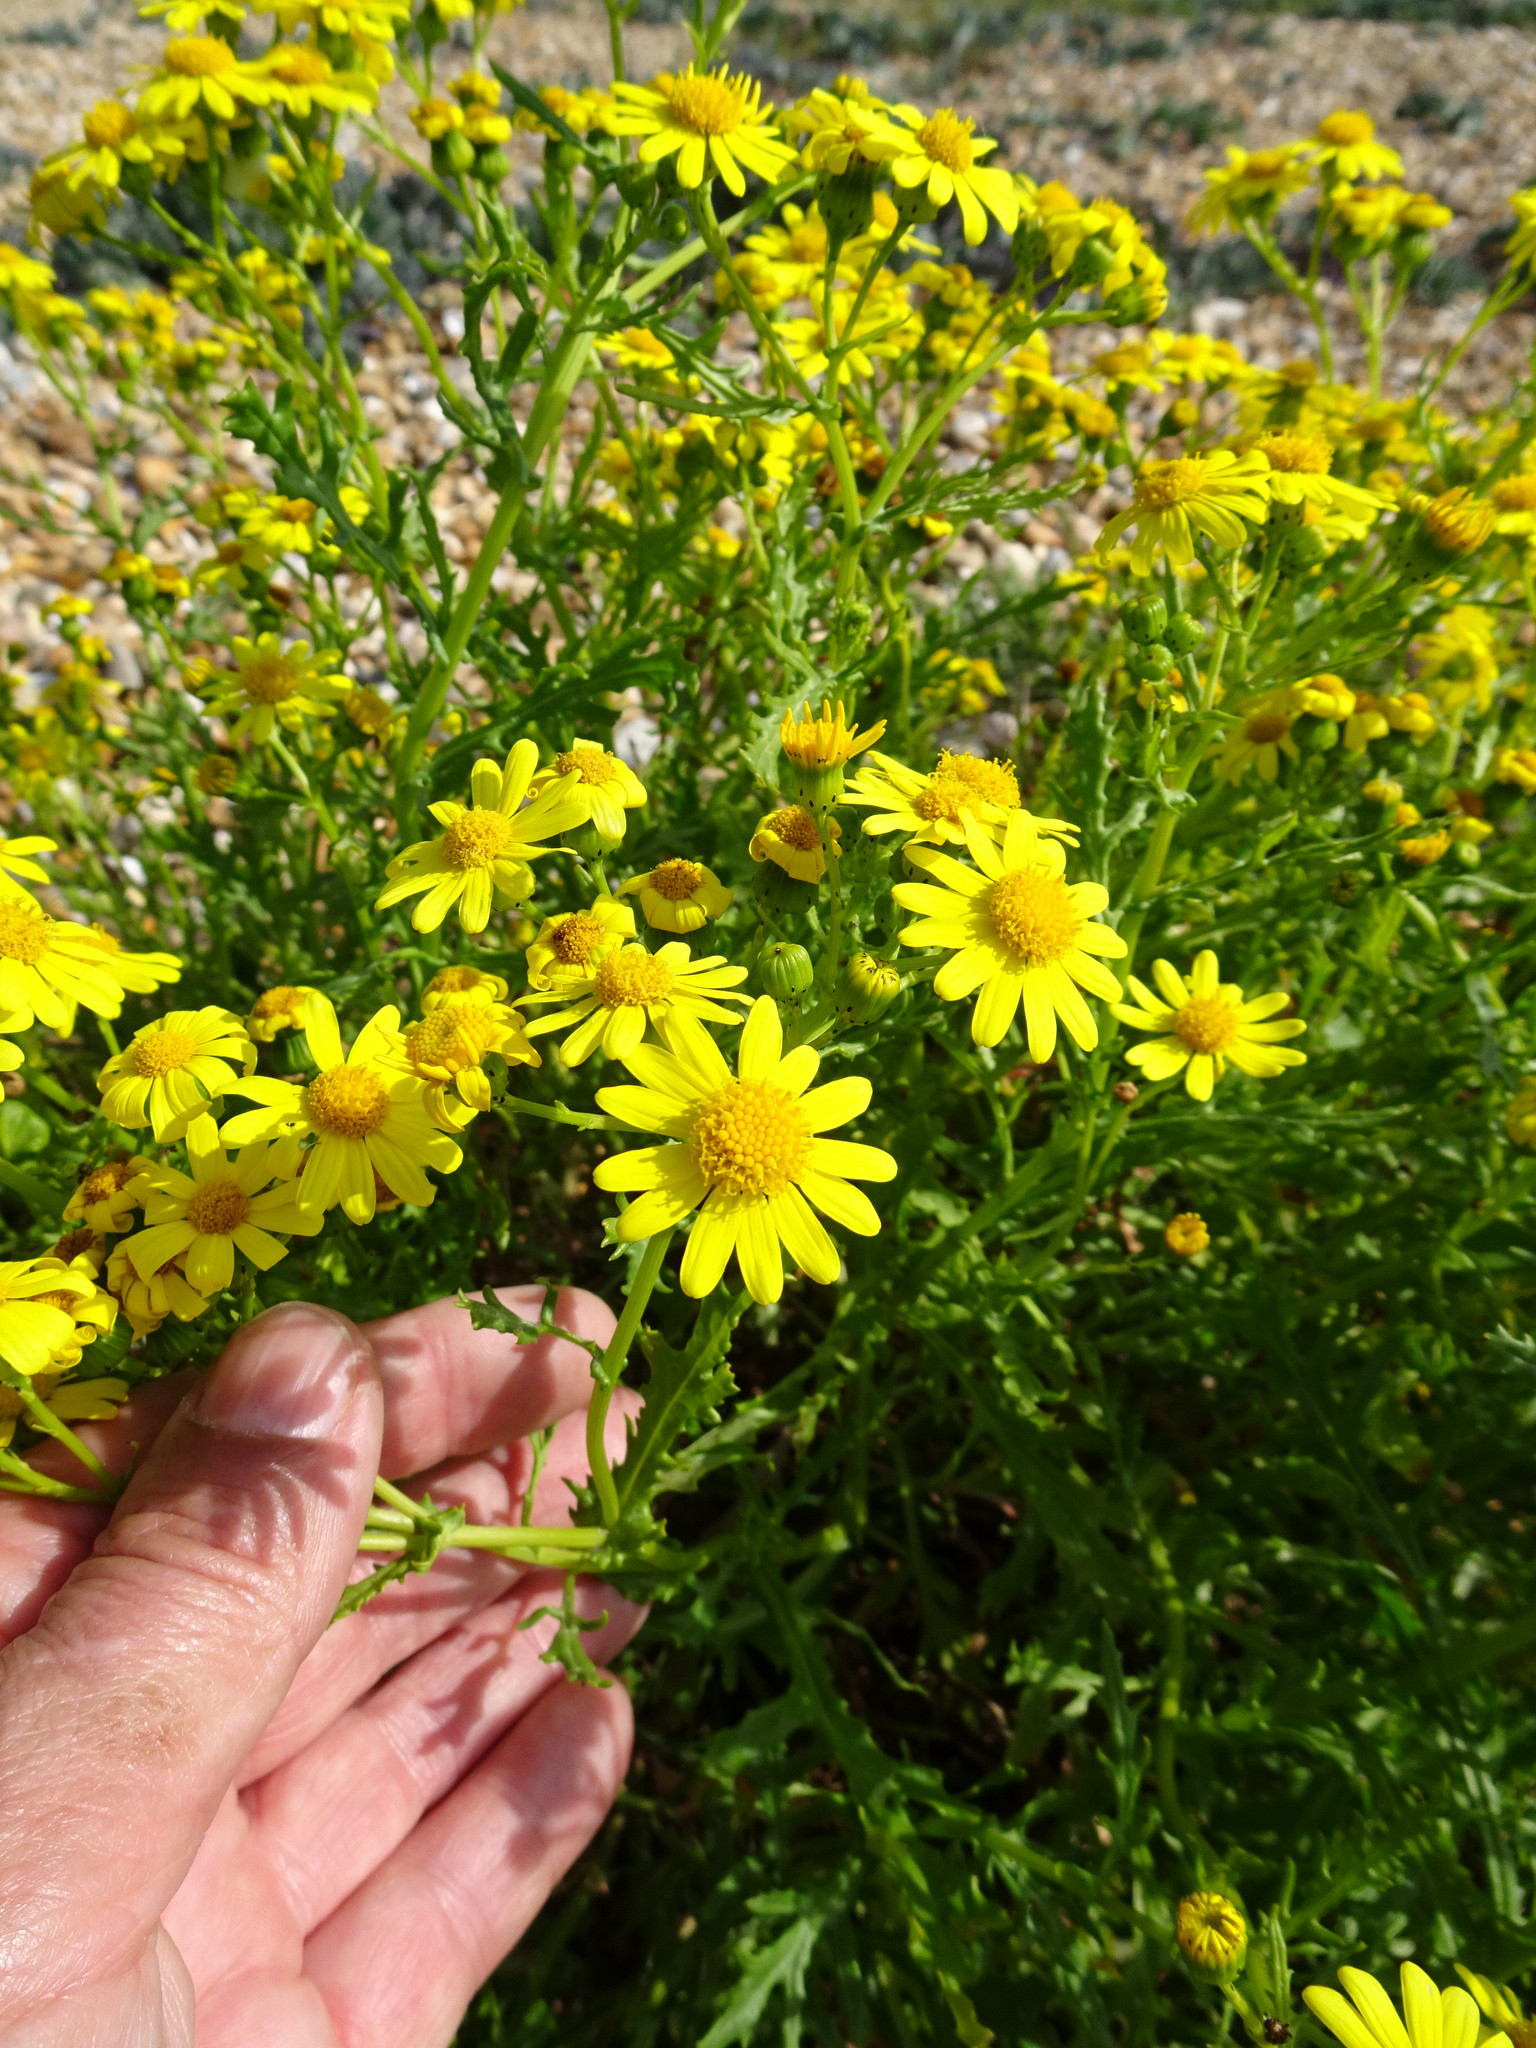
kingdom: Plantae
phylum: Tracheophyta
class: Magnoliopsida
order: Asterales
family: Asteraceae
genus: Senecio
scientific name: Senecio squalidus
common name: Oxford ragwort
